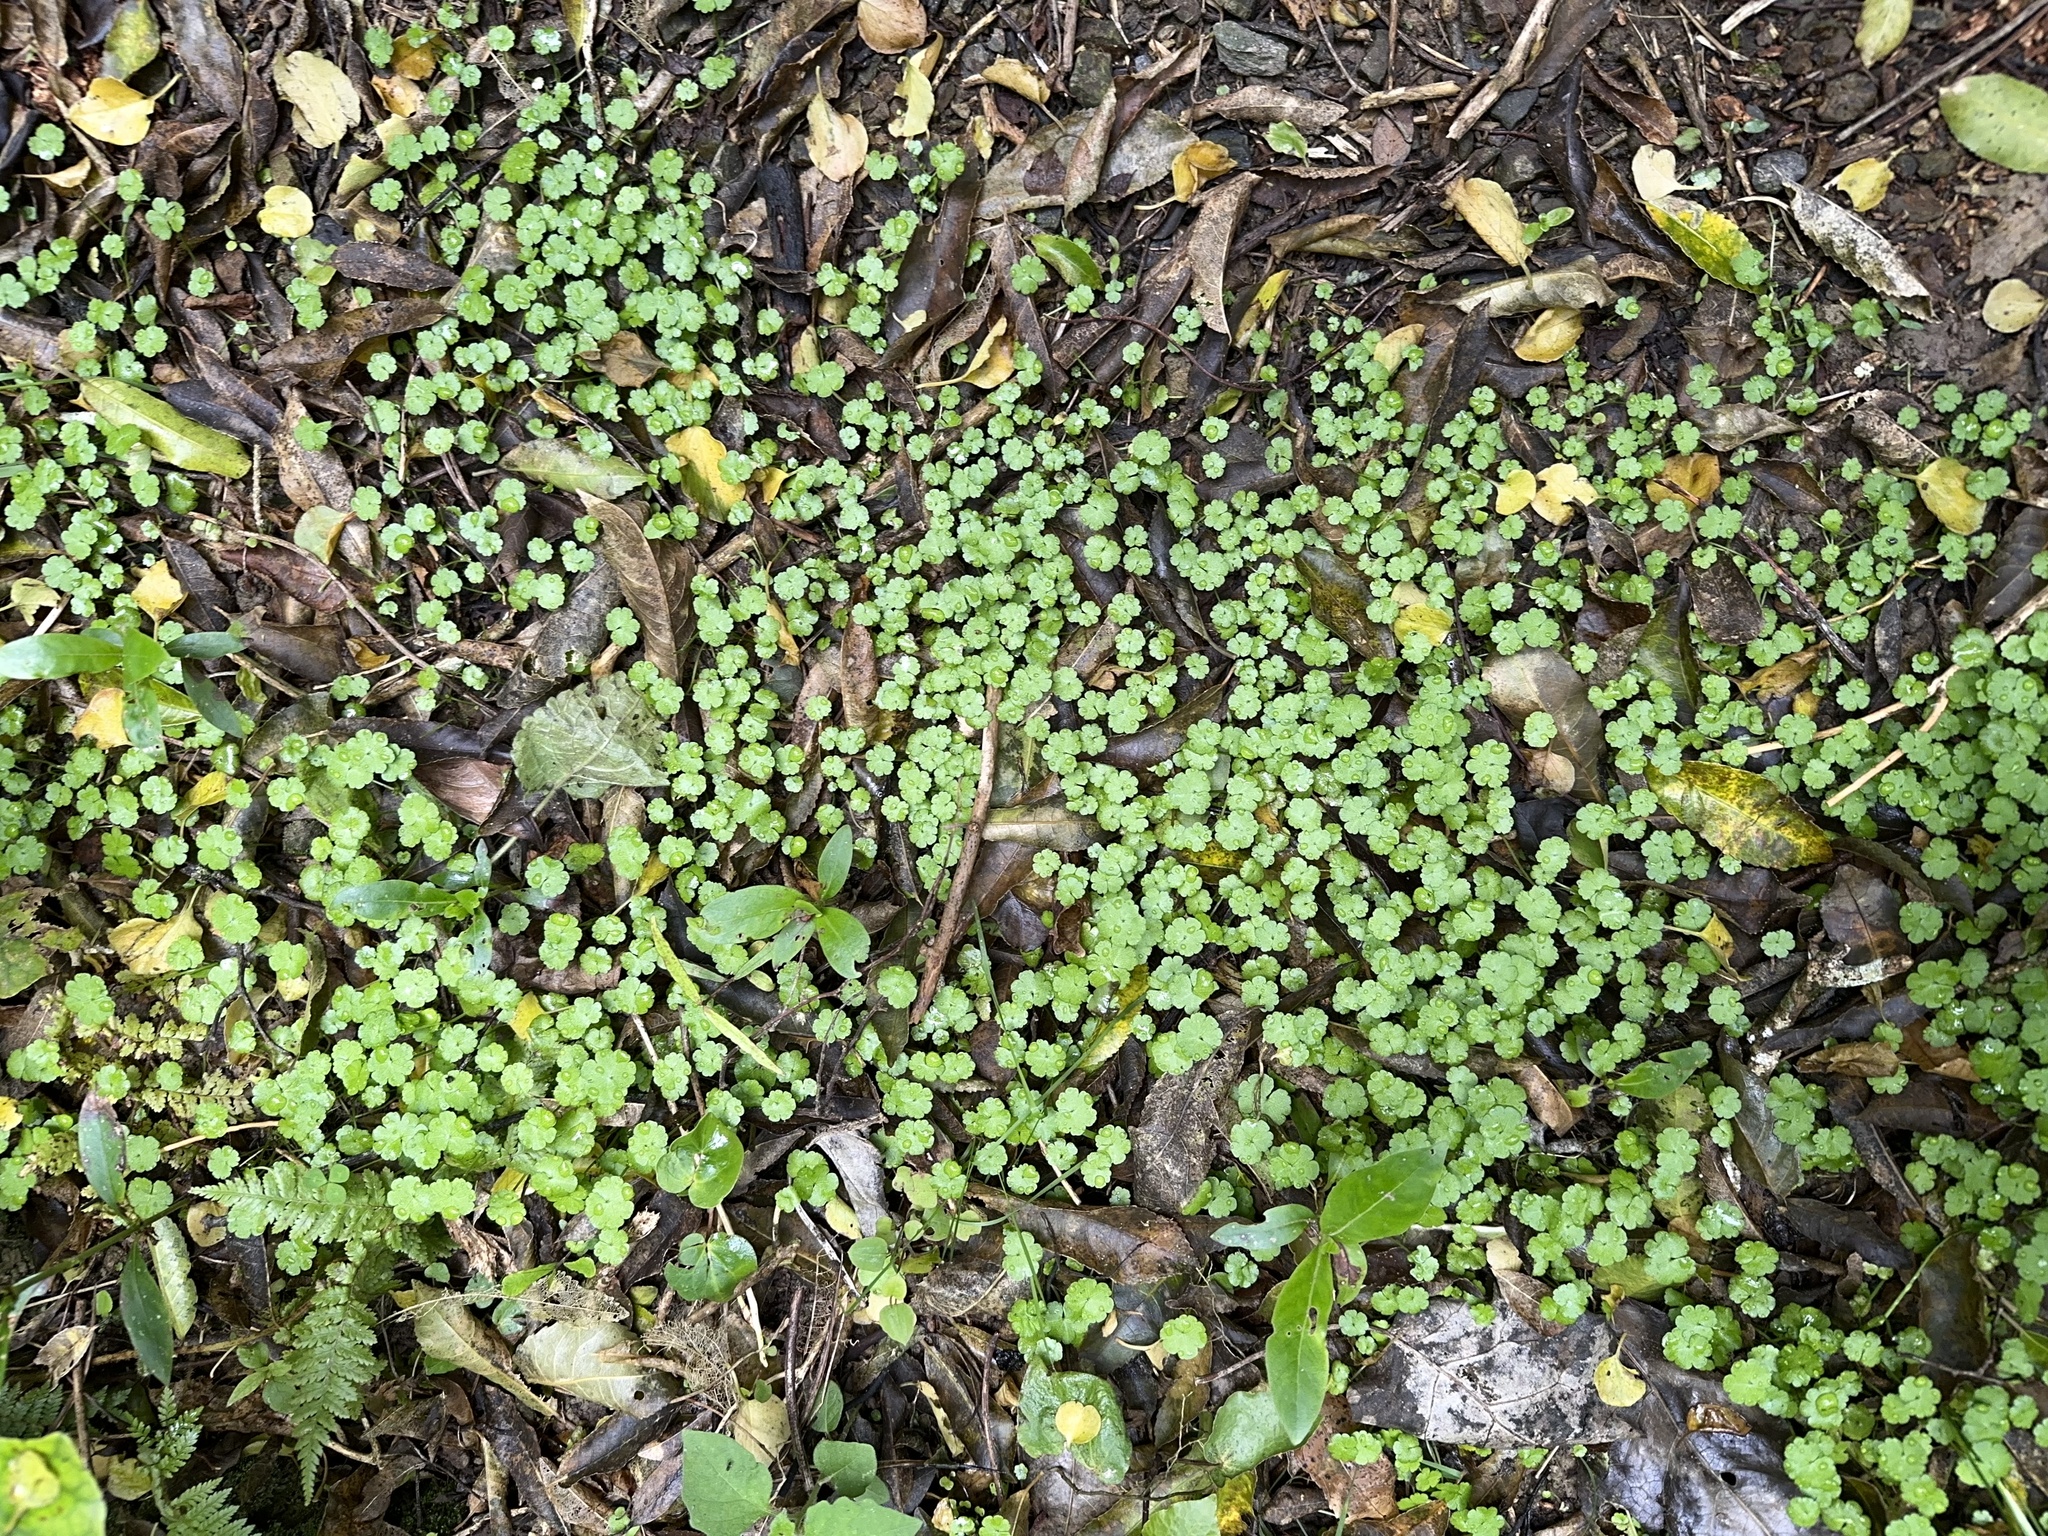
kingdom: Plantae
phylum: Tracheophyta
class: Magnoliopsida
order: Apiales
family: Araliaceae
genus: Hydrocotyle
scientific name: Hydrocotyle heteromeria
